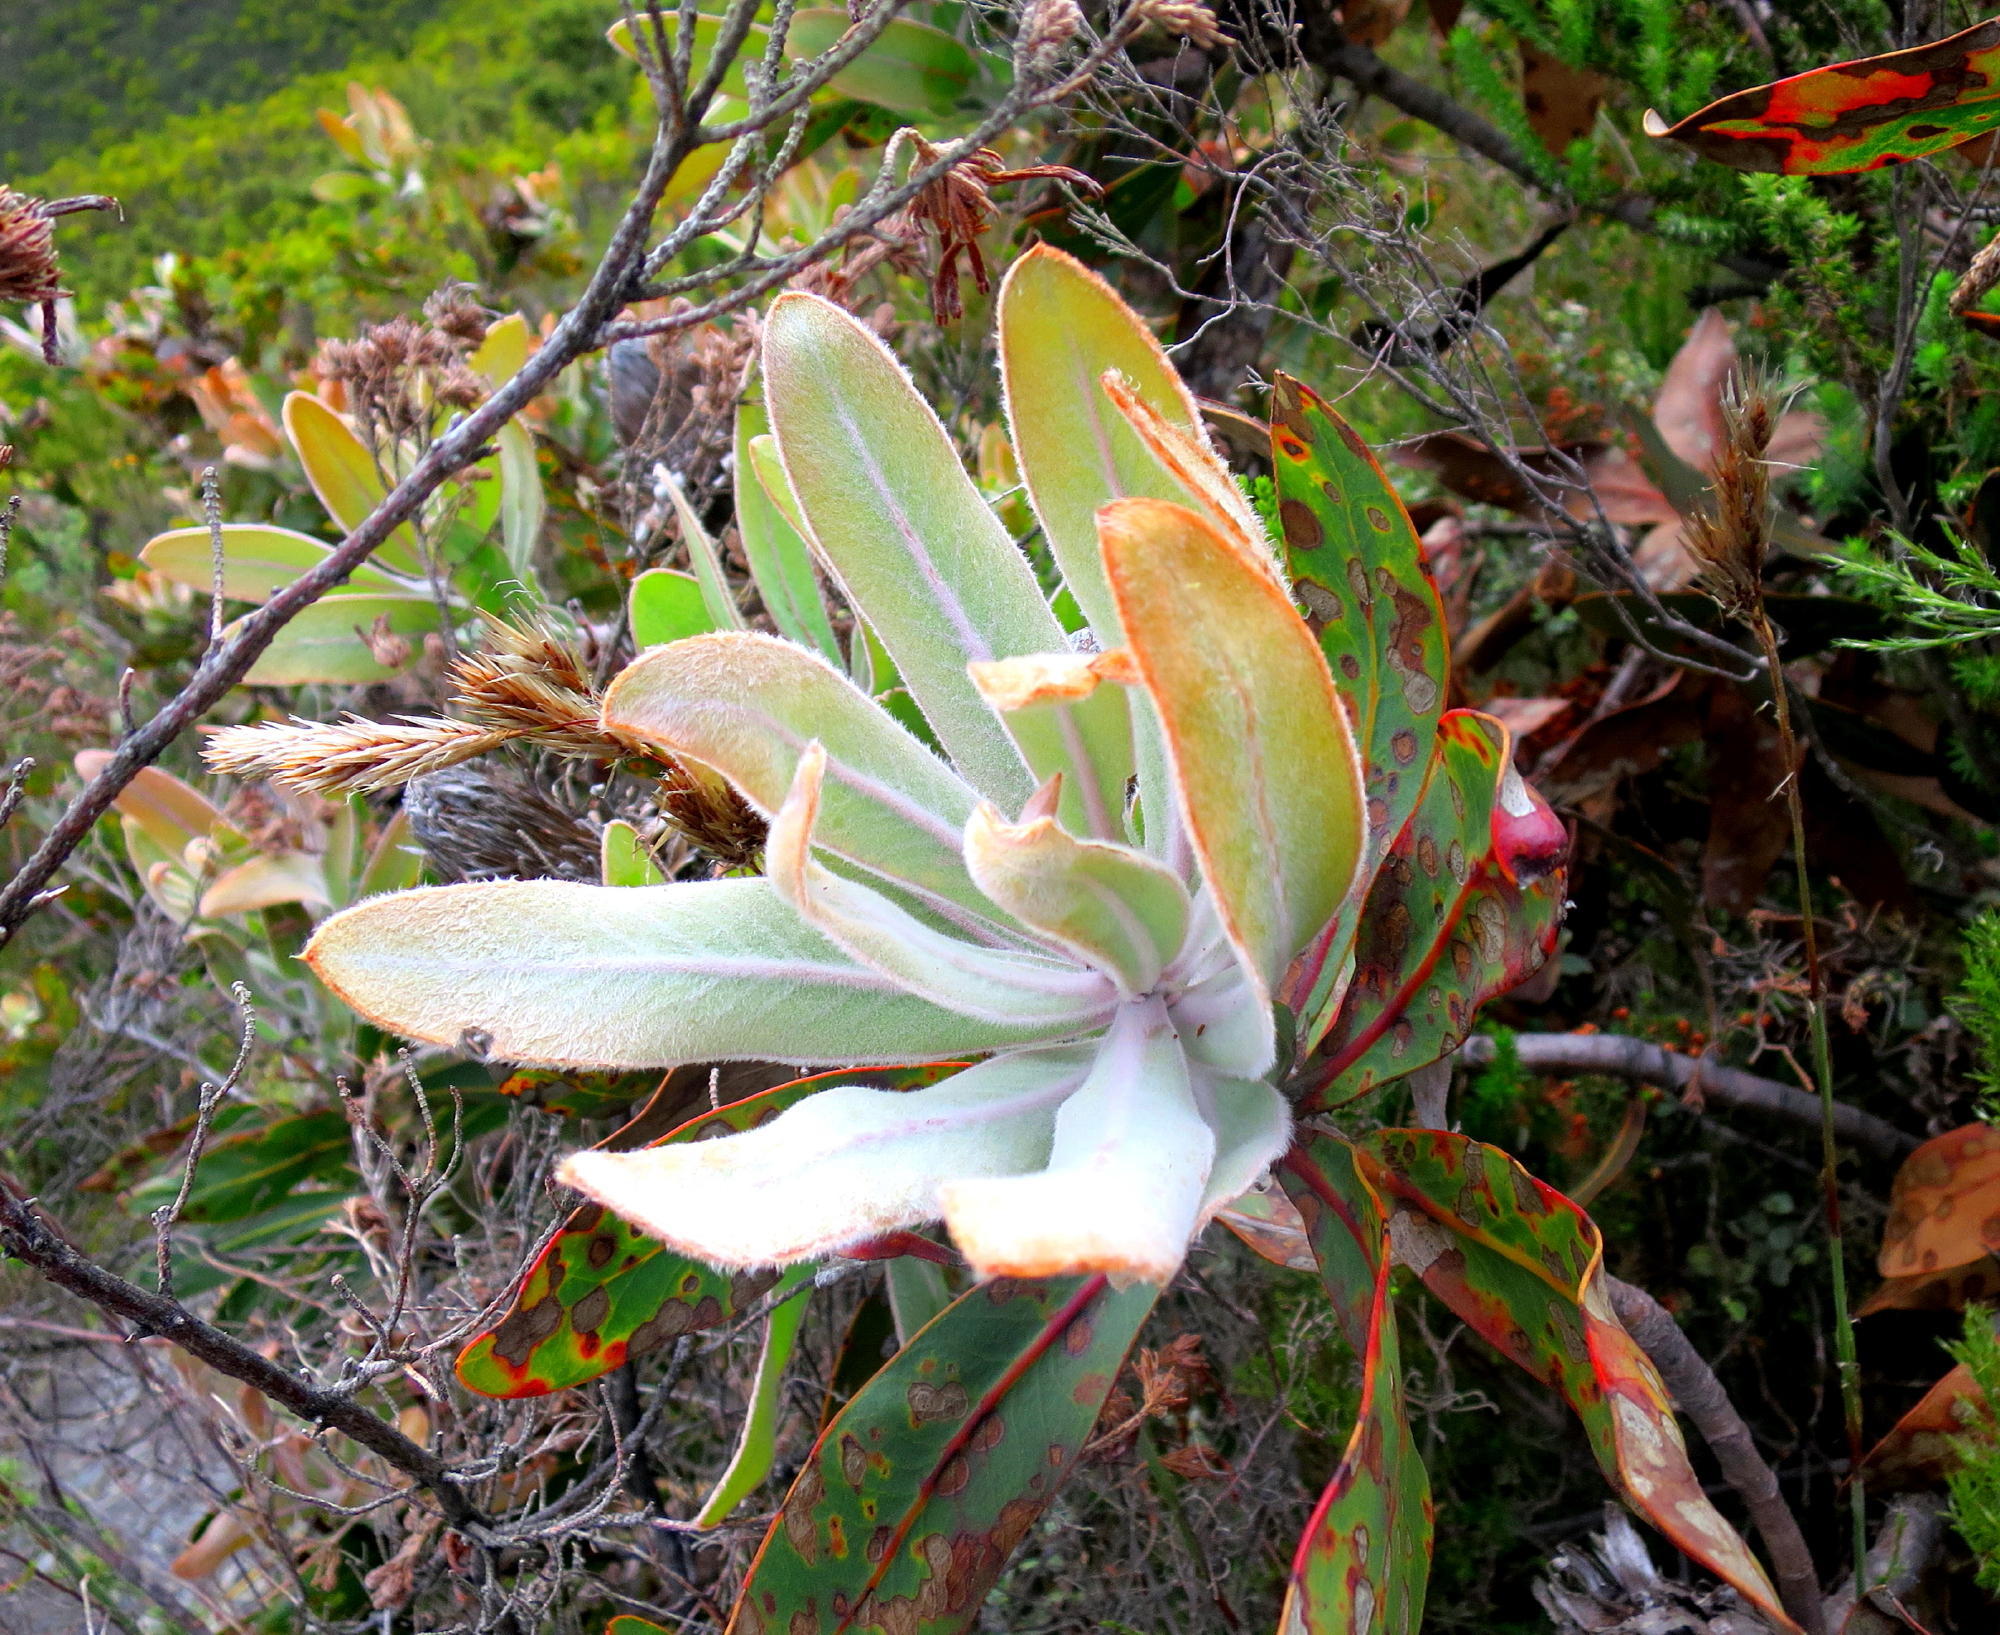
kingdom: Plantae
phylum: Tracheophyta
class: Magnoliopsida
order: Proteales
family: Proteaceae
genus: Protea
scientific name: Protea lorifolia
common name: Strap-leaved protea
